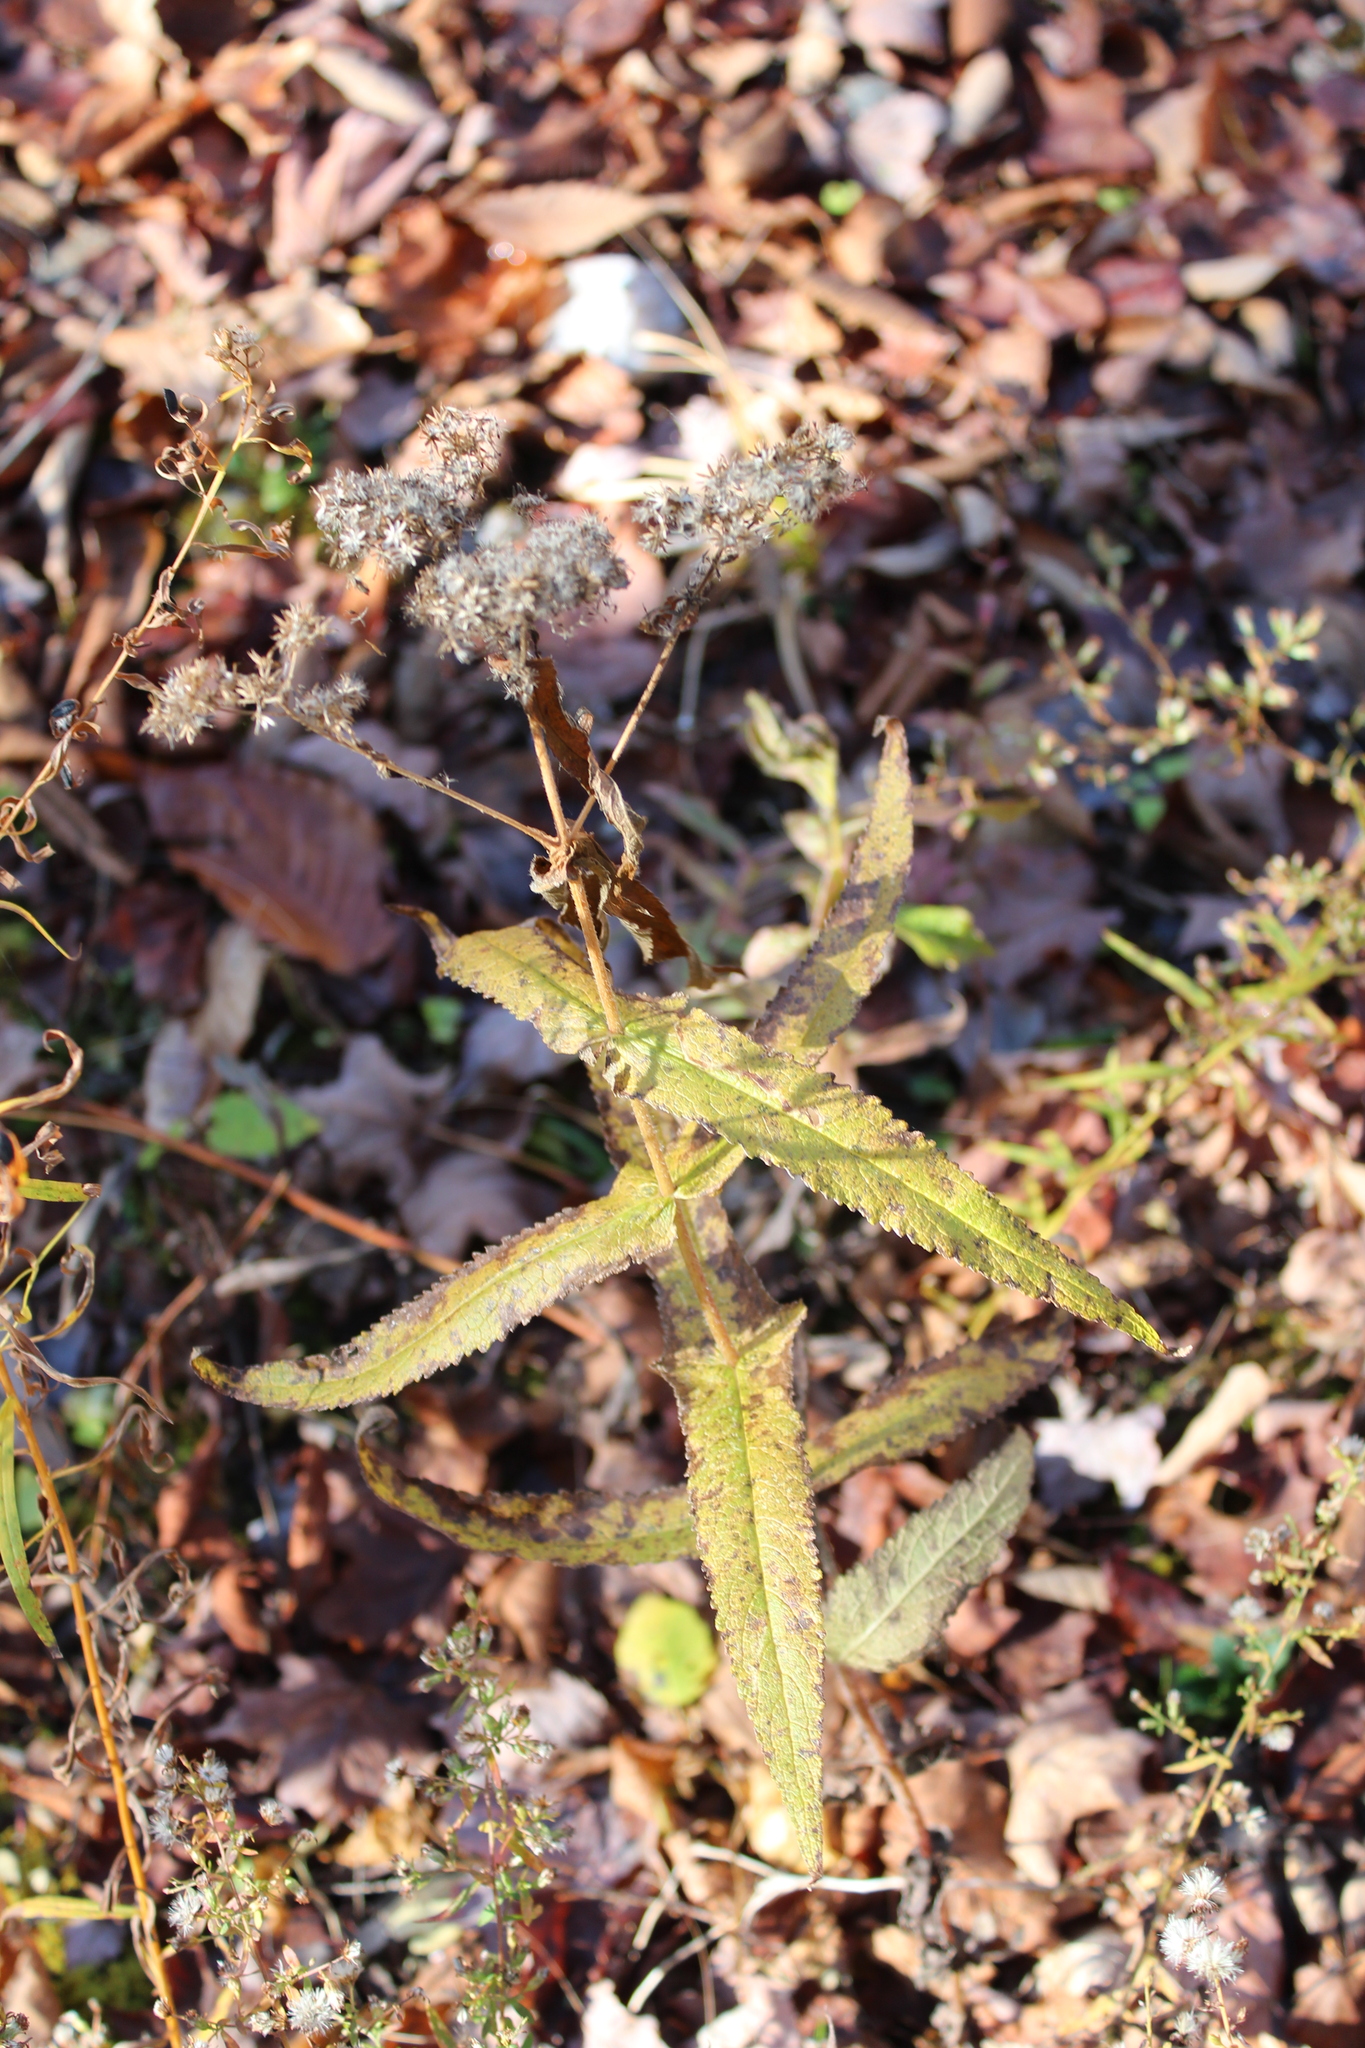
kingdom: Plantae
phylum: Tracheophyta
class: Magnoliopsida
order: Asterales
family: Asteraceae
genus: Eupatorium
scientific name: Eupatorium perfoliatum
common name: Boneset
